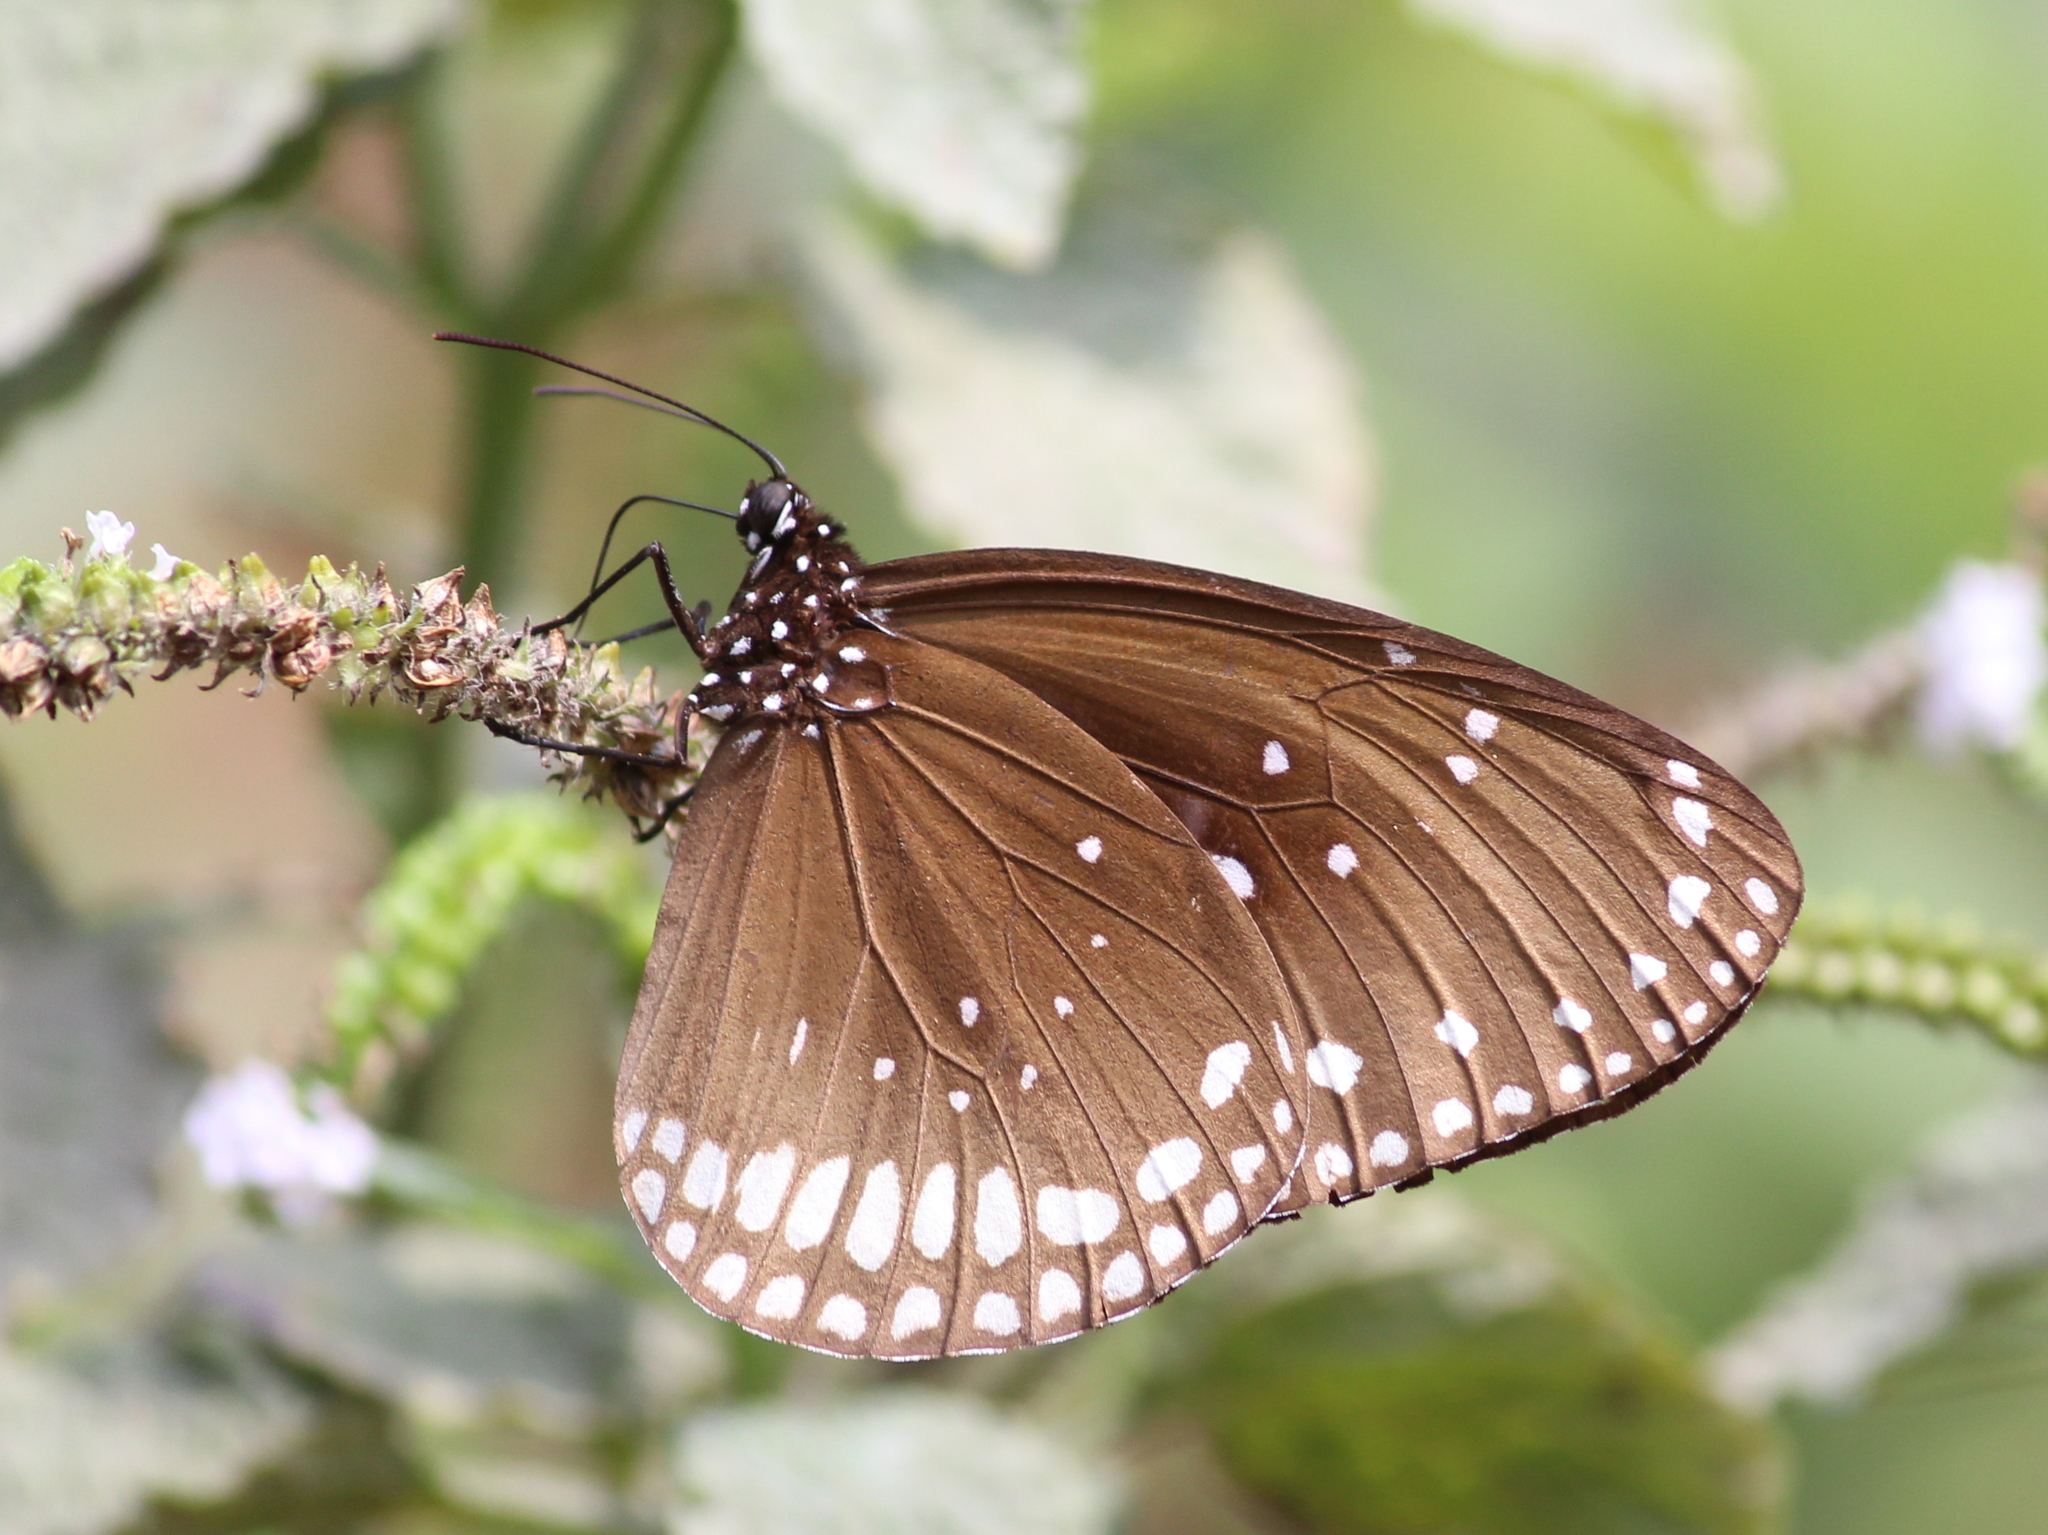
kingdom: Animalia
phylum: Arthropoda
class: Insecta
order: Lepidoptera
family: Nymphalidae
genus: Euploea
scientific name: Euploea sylvester
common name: Double-branded crow butterfly
